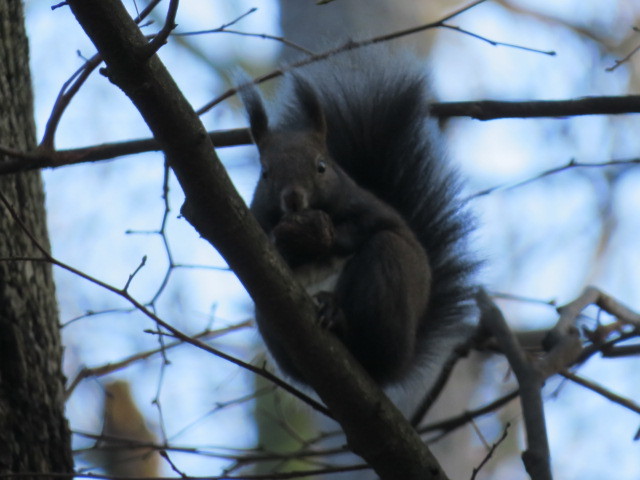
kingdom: Animalia
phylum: Chordata
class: Mammalia
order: Rodentia
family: Sciuridae
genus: Sciurus
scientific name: Sciurus vulgaris
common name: Eurasian red squirrel
